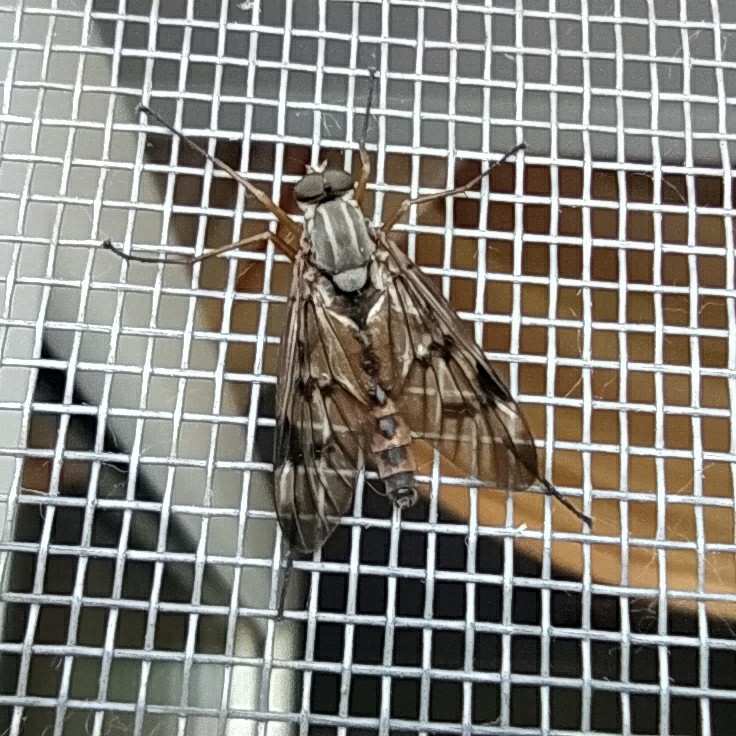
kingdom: Animalia
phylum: Arthropoda
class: Insecta
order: Diptera
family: Rhagionidae
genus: Rhagio
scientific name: Rhagio scolopacea
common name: Downlooker snipefly
